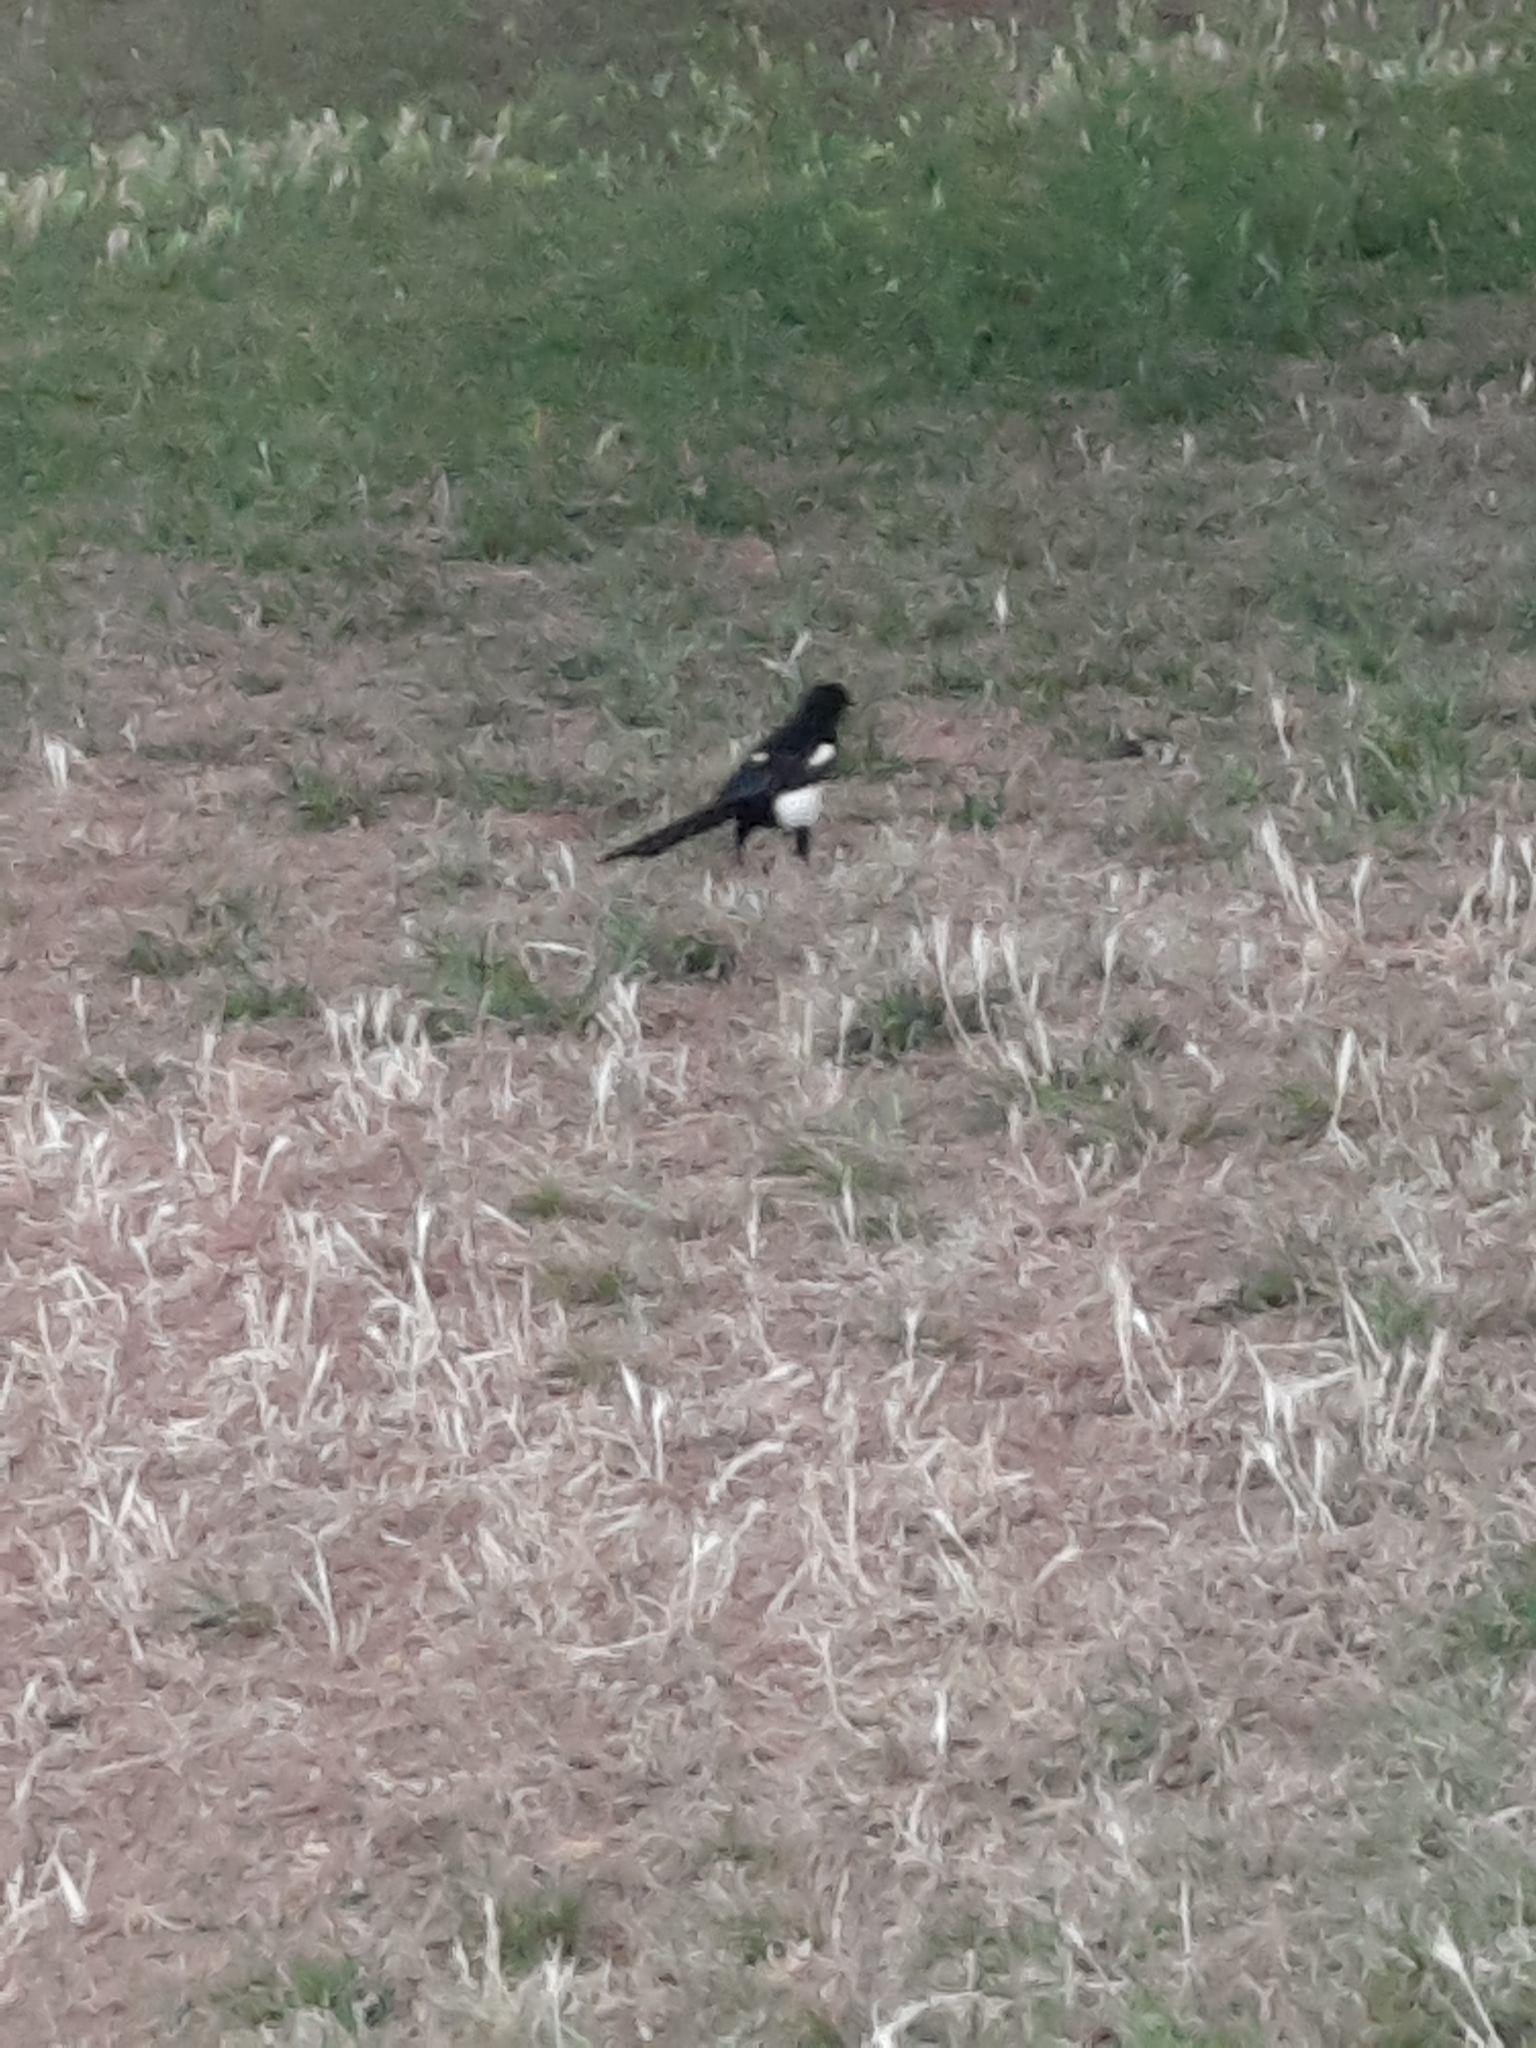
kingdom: Animalia
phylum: Chordata
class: Aves
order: Passeriformes
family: Corvidae
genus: Pica
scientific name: Pica pica
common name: Eurasian magpie
